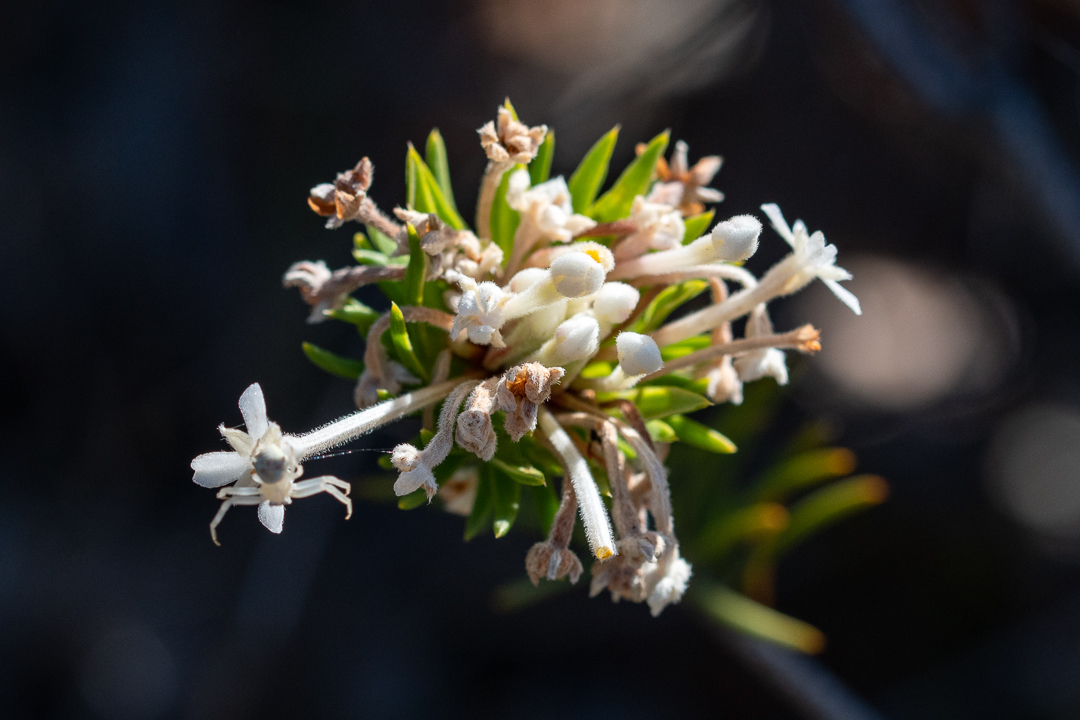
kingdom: Plantae
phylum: Tracheophyta
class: Magnoliopsida
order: Malvales
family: Thymelaeaceae
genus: Gnidia
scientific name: Gnidia pinifolia
